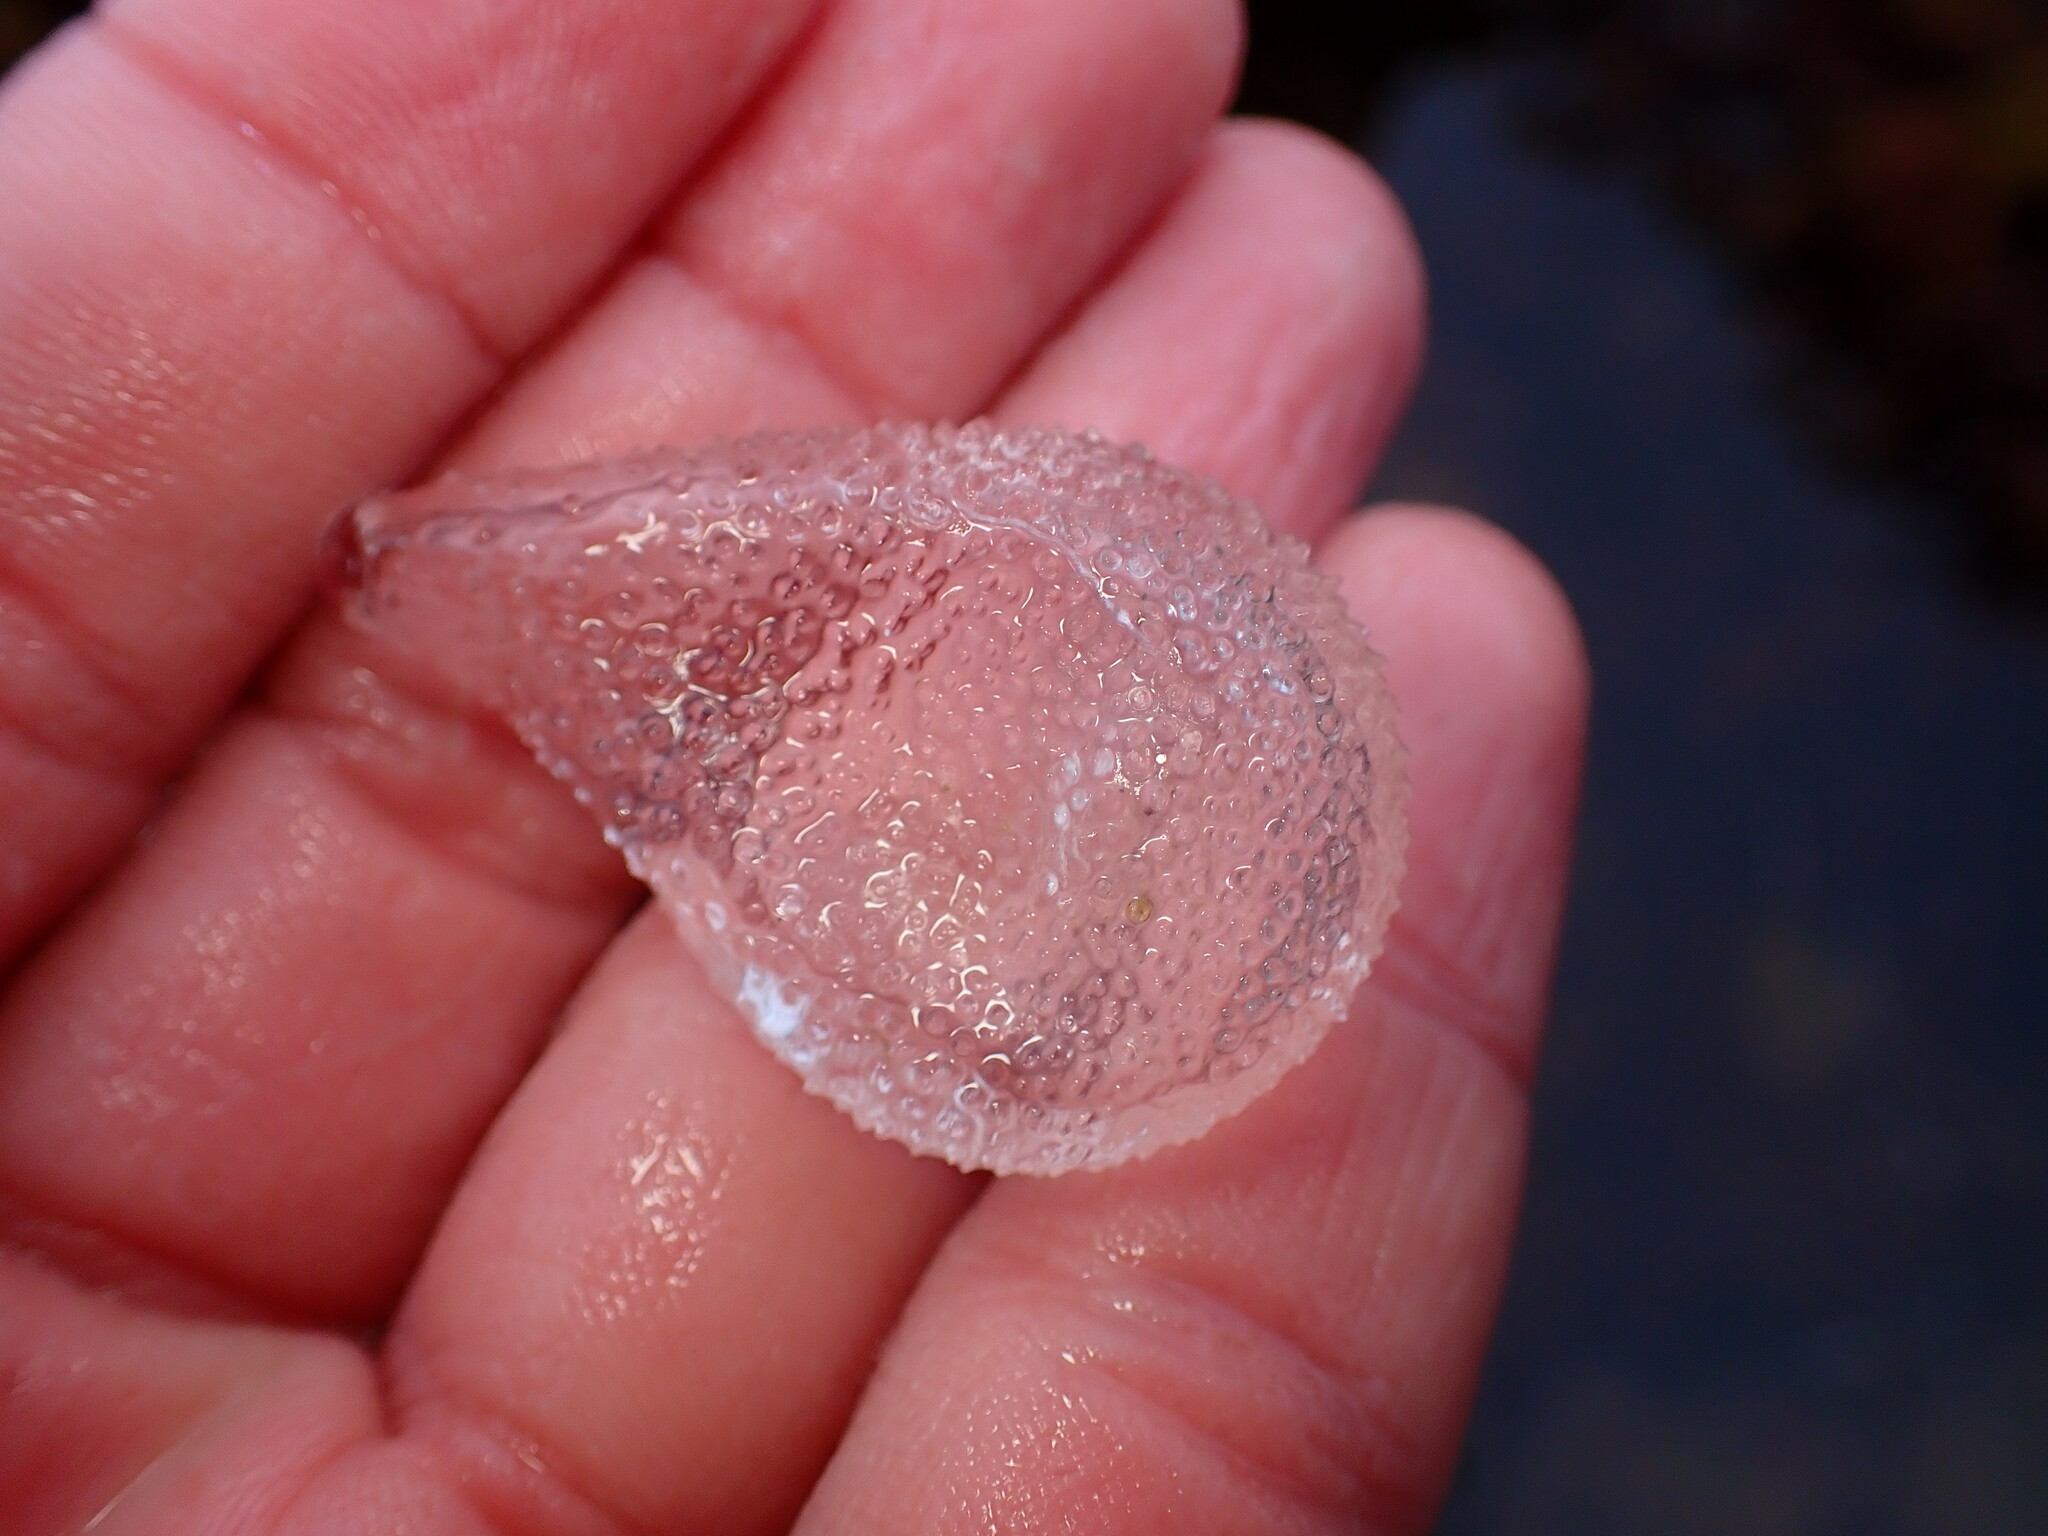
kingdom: Animalia
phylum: Mollusca
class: Gastropoda
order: Pteropoda
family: Cymbuliidae
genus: Corolla
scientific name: Corolla spectabilis
